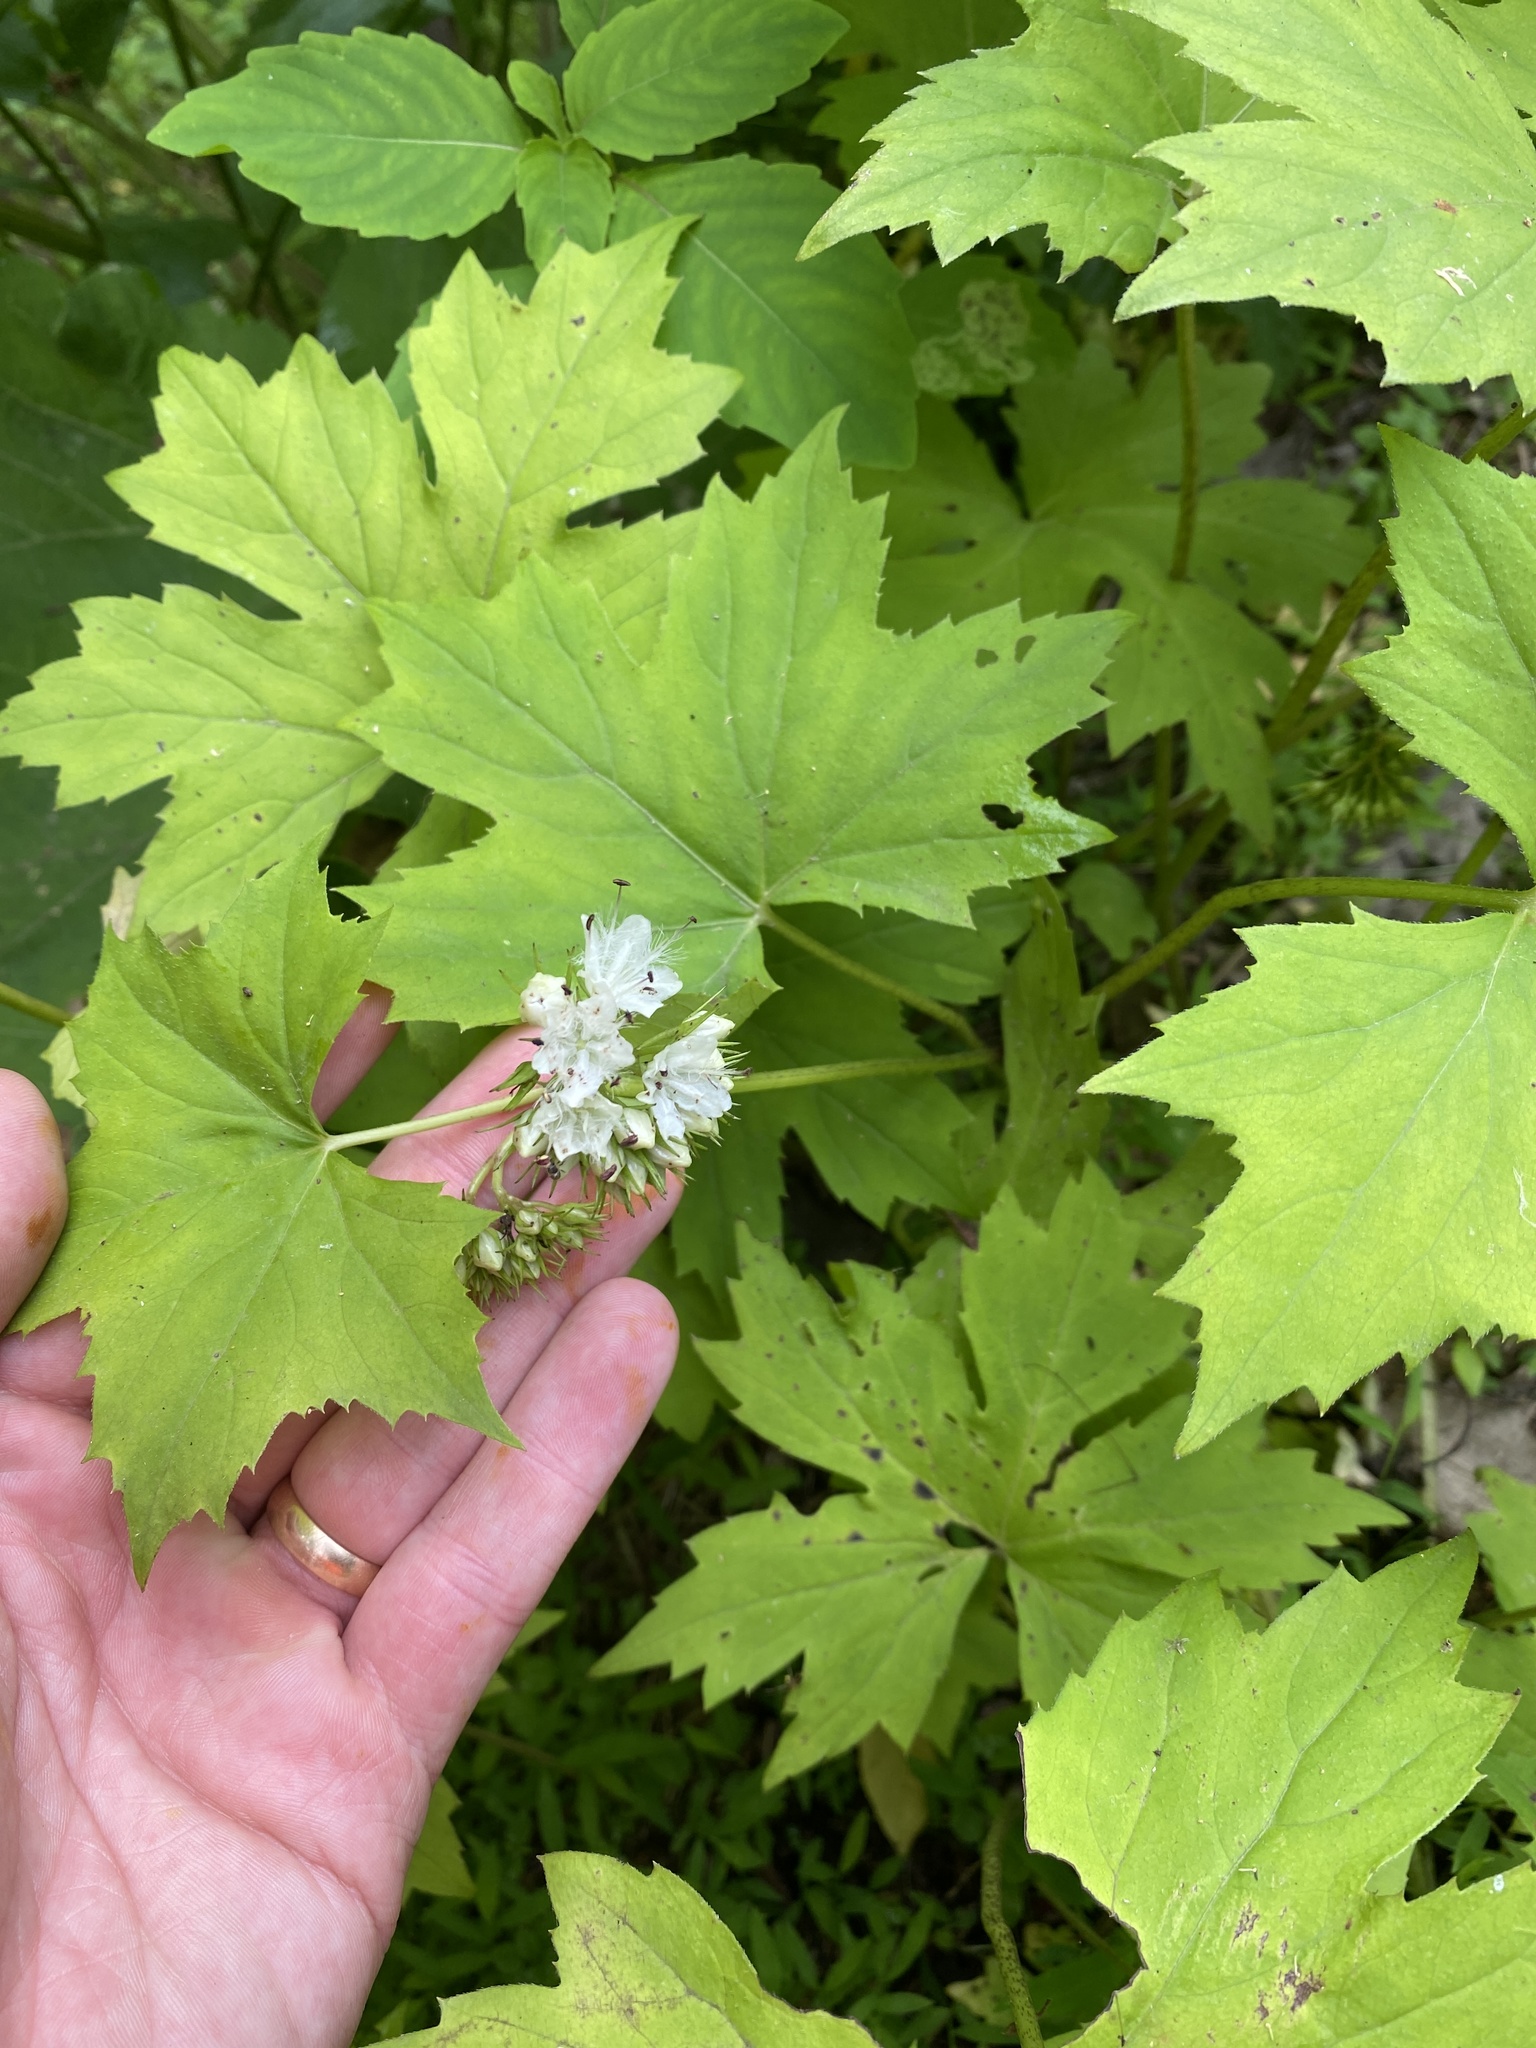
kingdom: Plantae
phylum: Tracheophyta
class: Magnoliopsida
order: Boraginales
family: Hydrophyllaceae
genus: Hydrophyllum
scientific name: Hydrophyllum canadense
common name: Canada waterleaf
